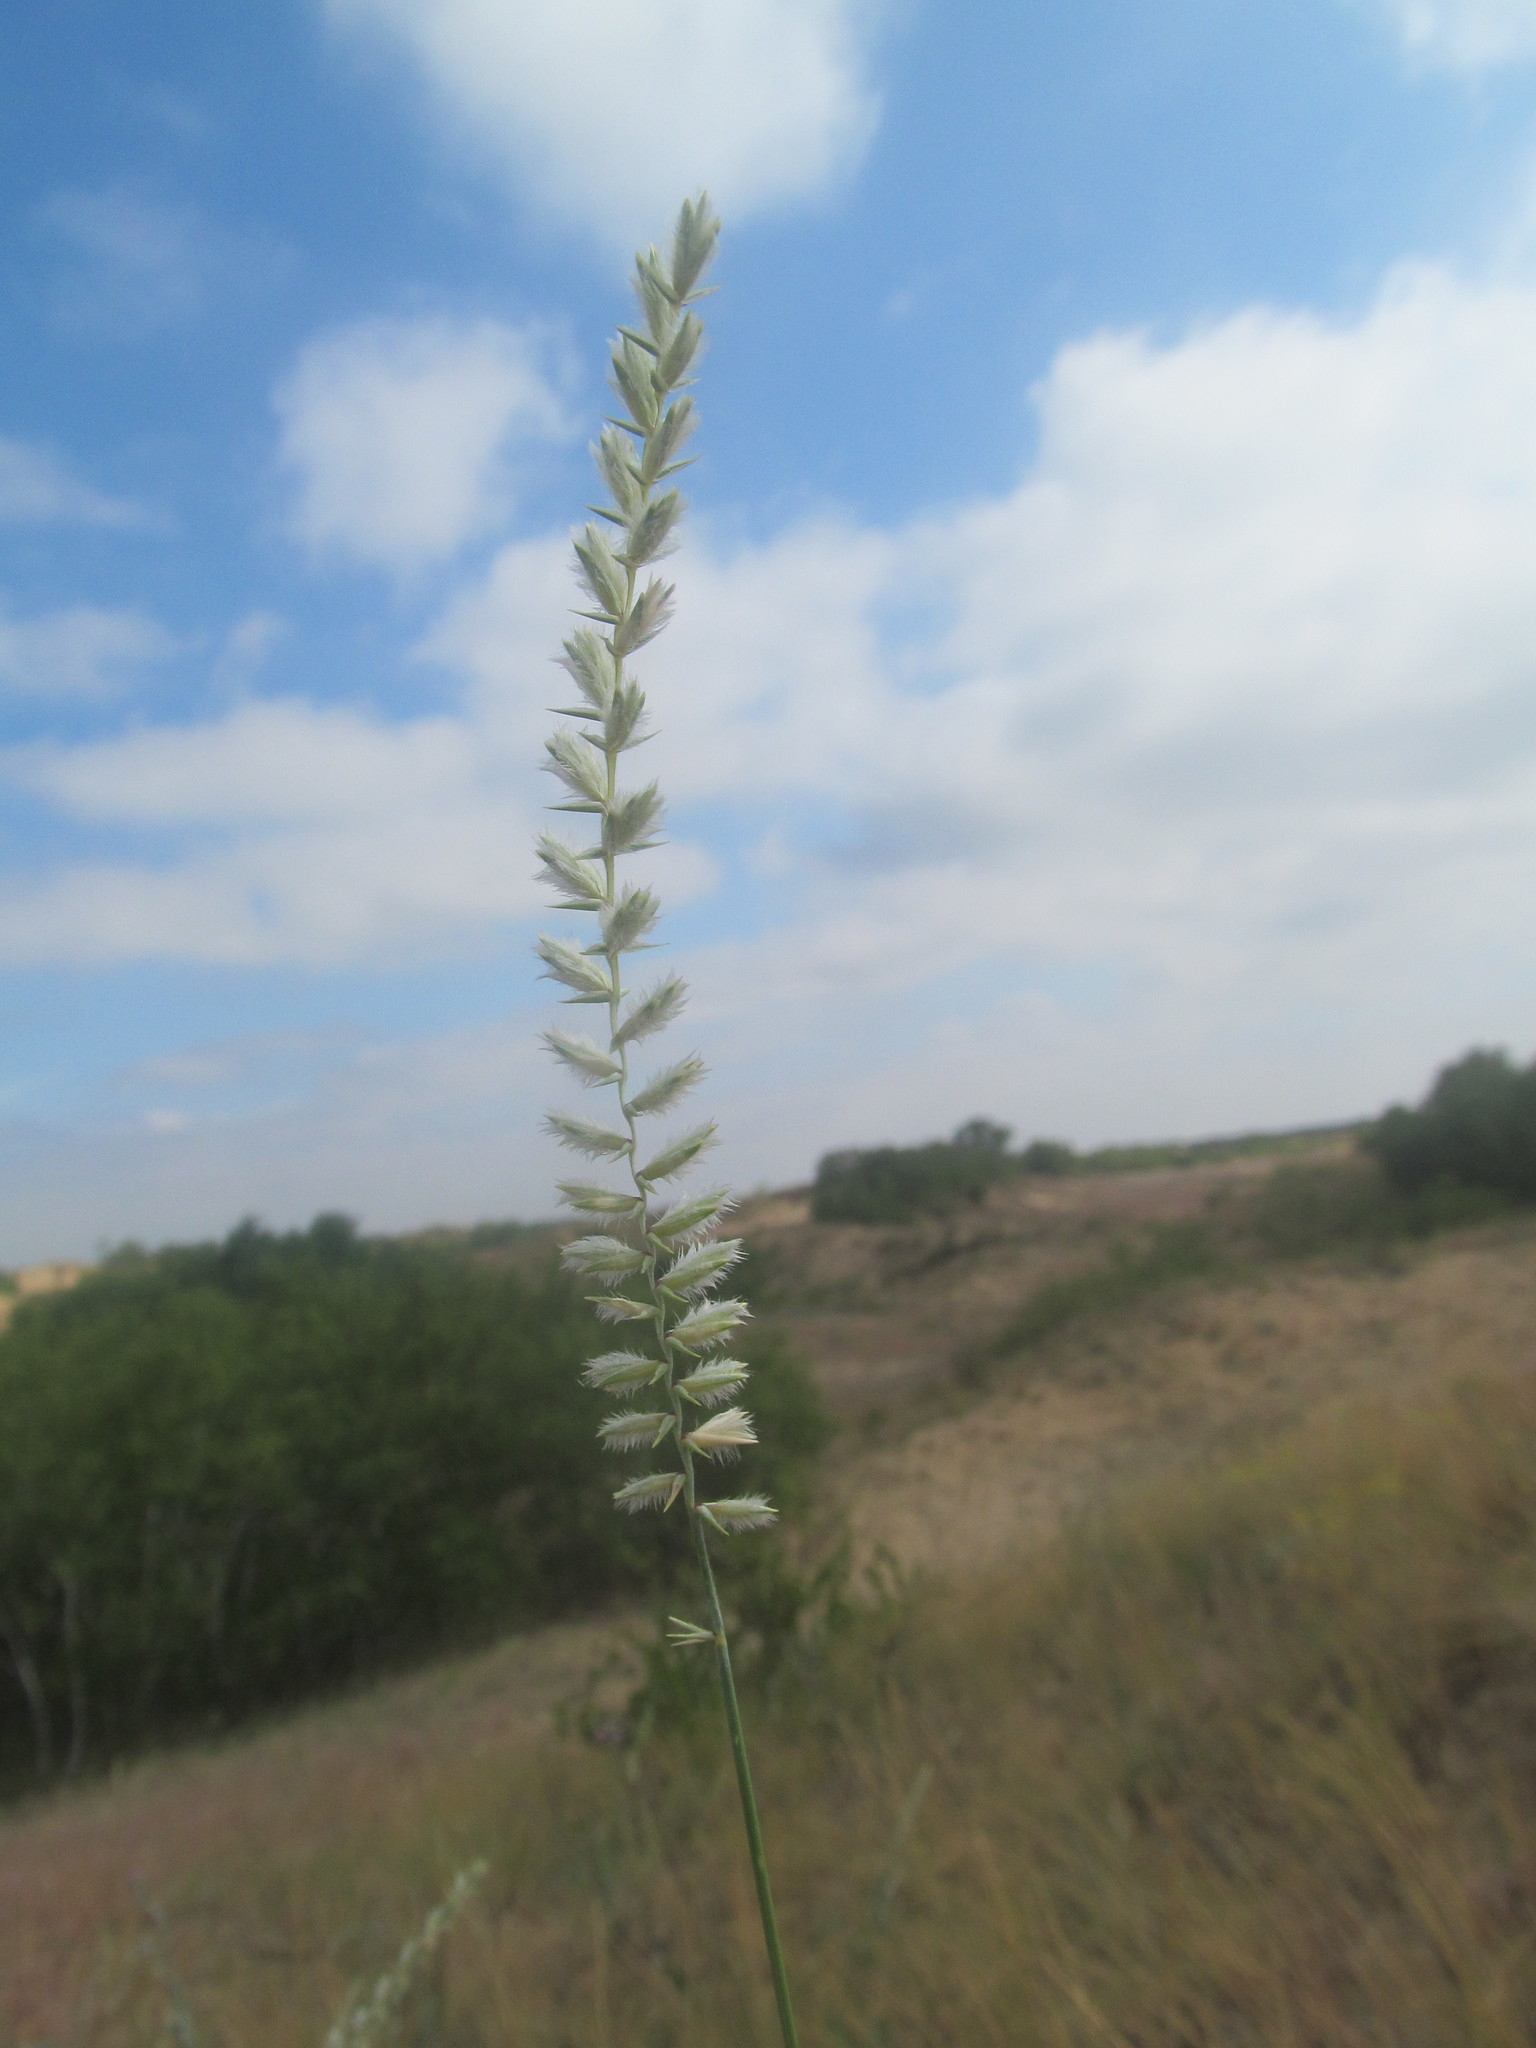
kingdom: Plantae
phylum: Tracheophyta
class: Liliopsida
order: Poales
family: Poaceae
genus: Agropyron
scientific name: Agropyron dasyanthum
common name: Edge flowered crested wheatgrass
